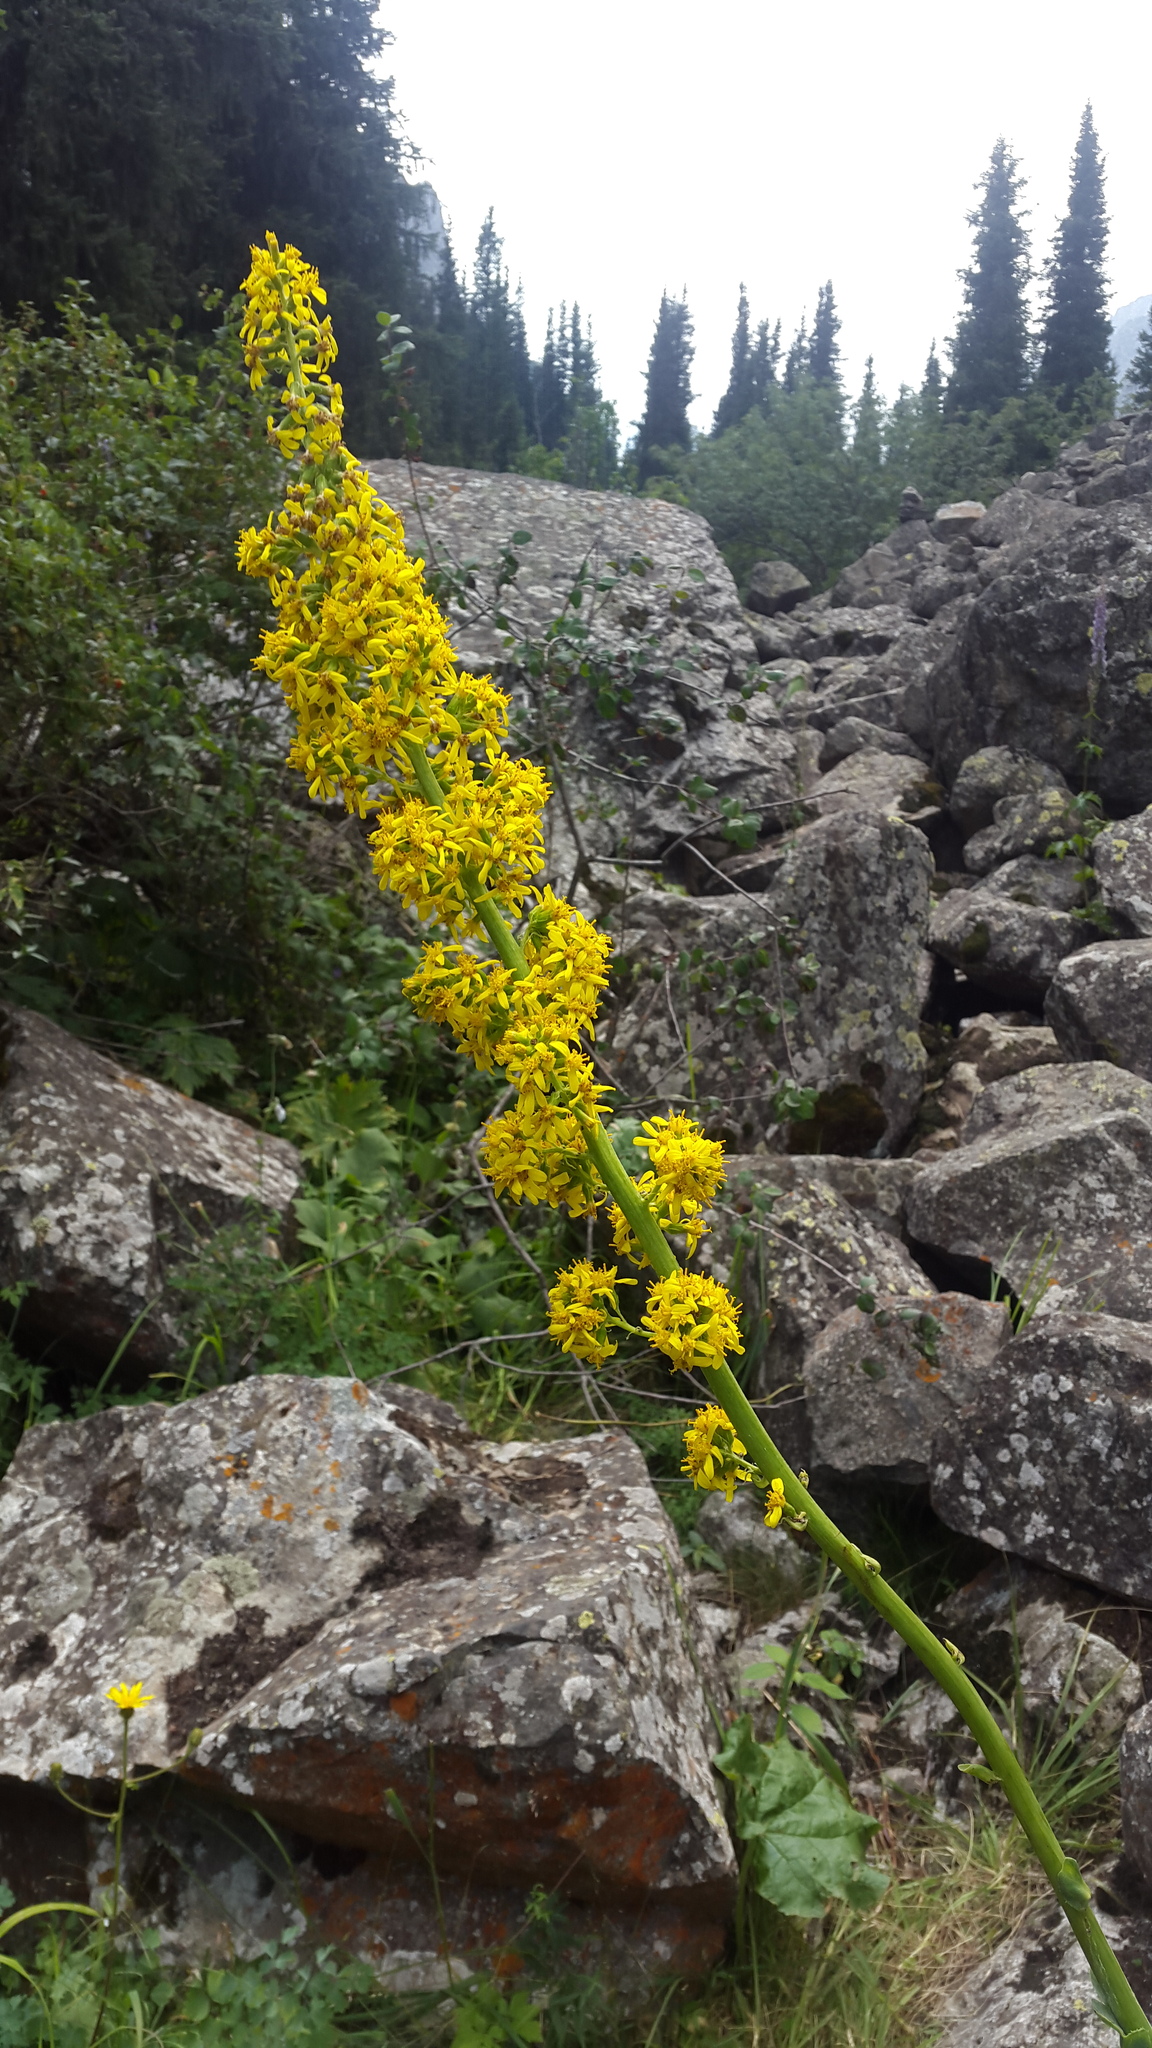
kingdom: Plantae
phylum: Tracheophyta
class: Magnoliopsida
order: Asterales
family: Asteraceae
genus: Ligularia
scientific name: Ligularia heterophylla
